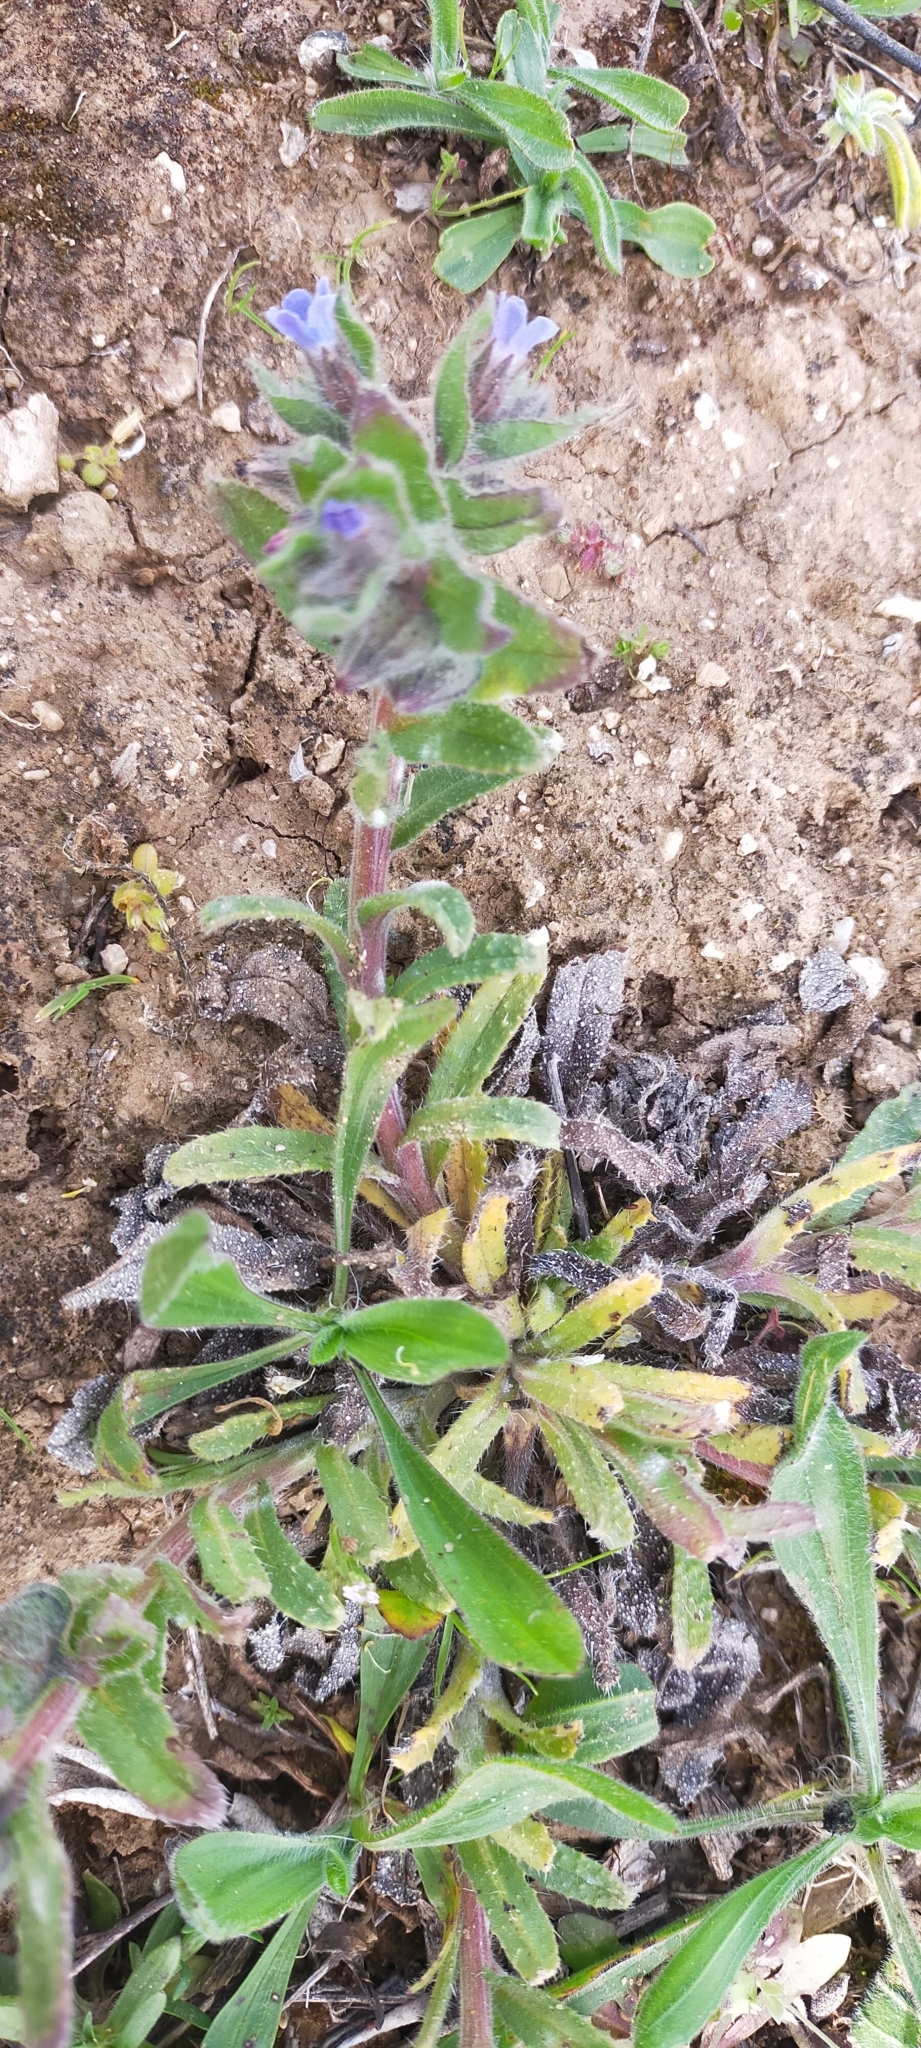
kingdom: Plantae
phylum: Tracheophyta
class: Magnoliopsida
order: Boraginales
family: Boraginaceae
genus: Nonea
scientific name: Nonea micrantha
